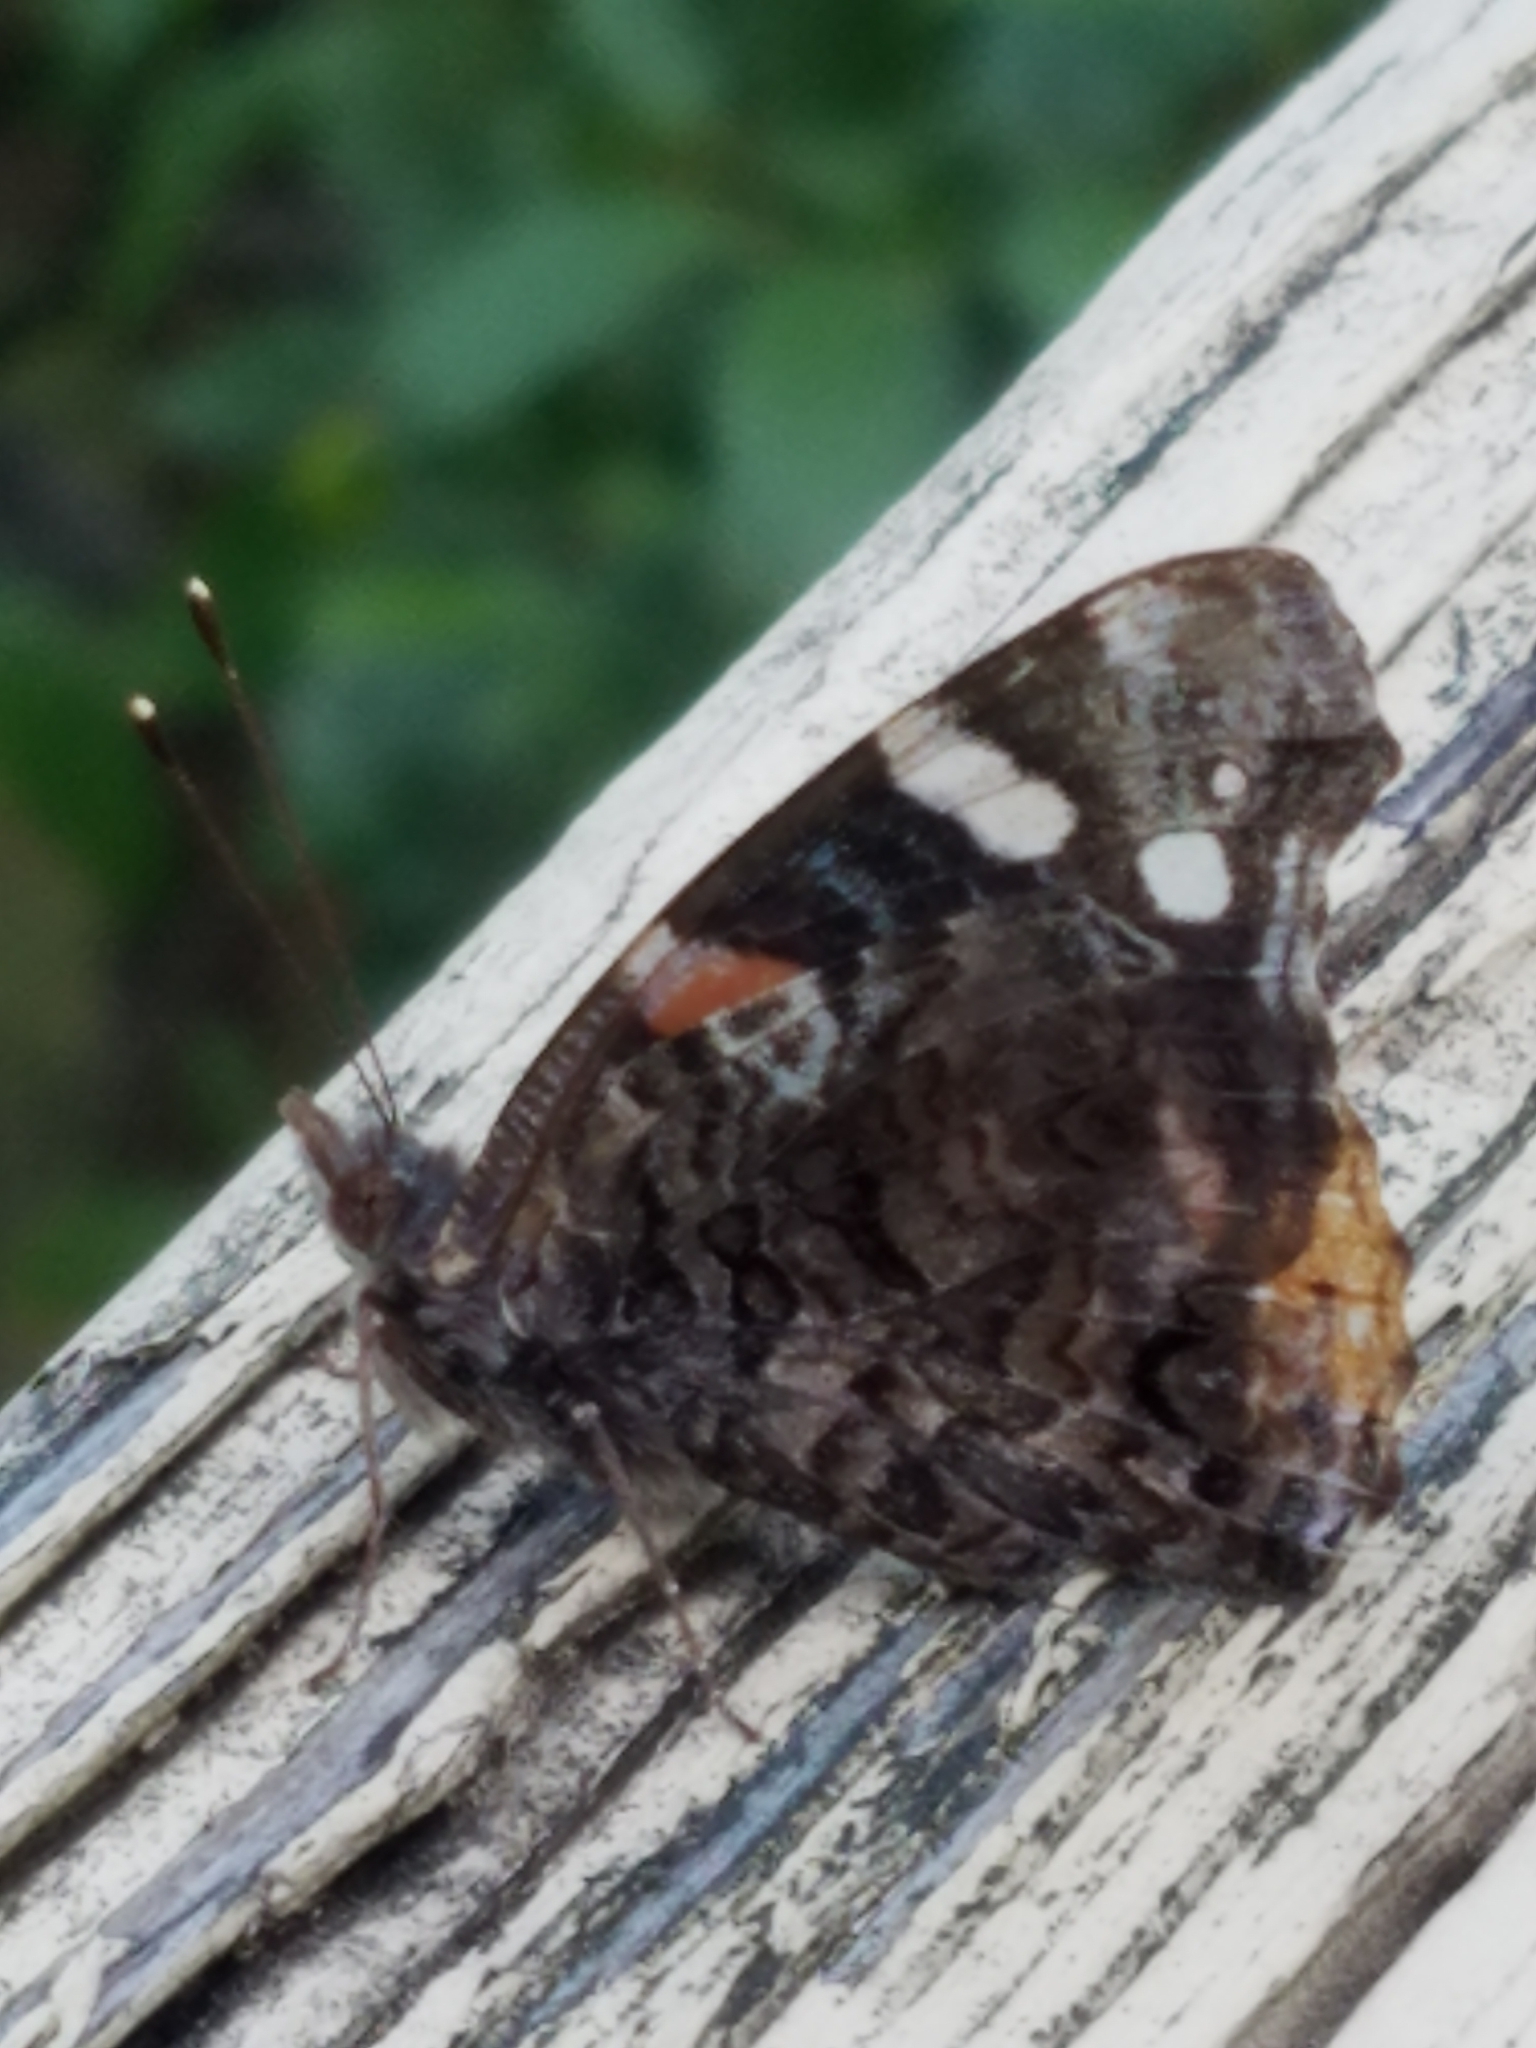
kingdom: Animalia
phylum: Arthropoda
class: Insecta
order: Lepidoptera
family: Nymphalidae
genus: Vanessa
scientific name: Vanessa atalanta
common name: Red admiral
